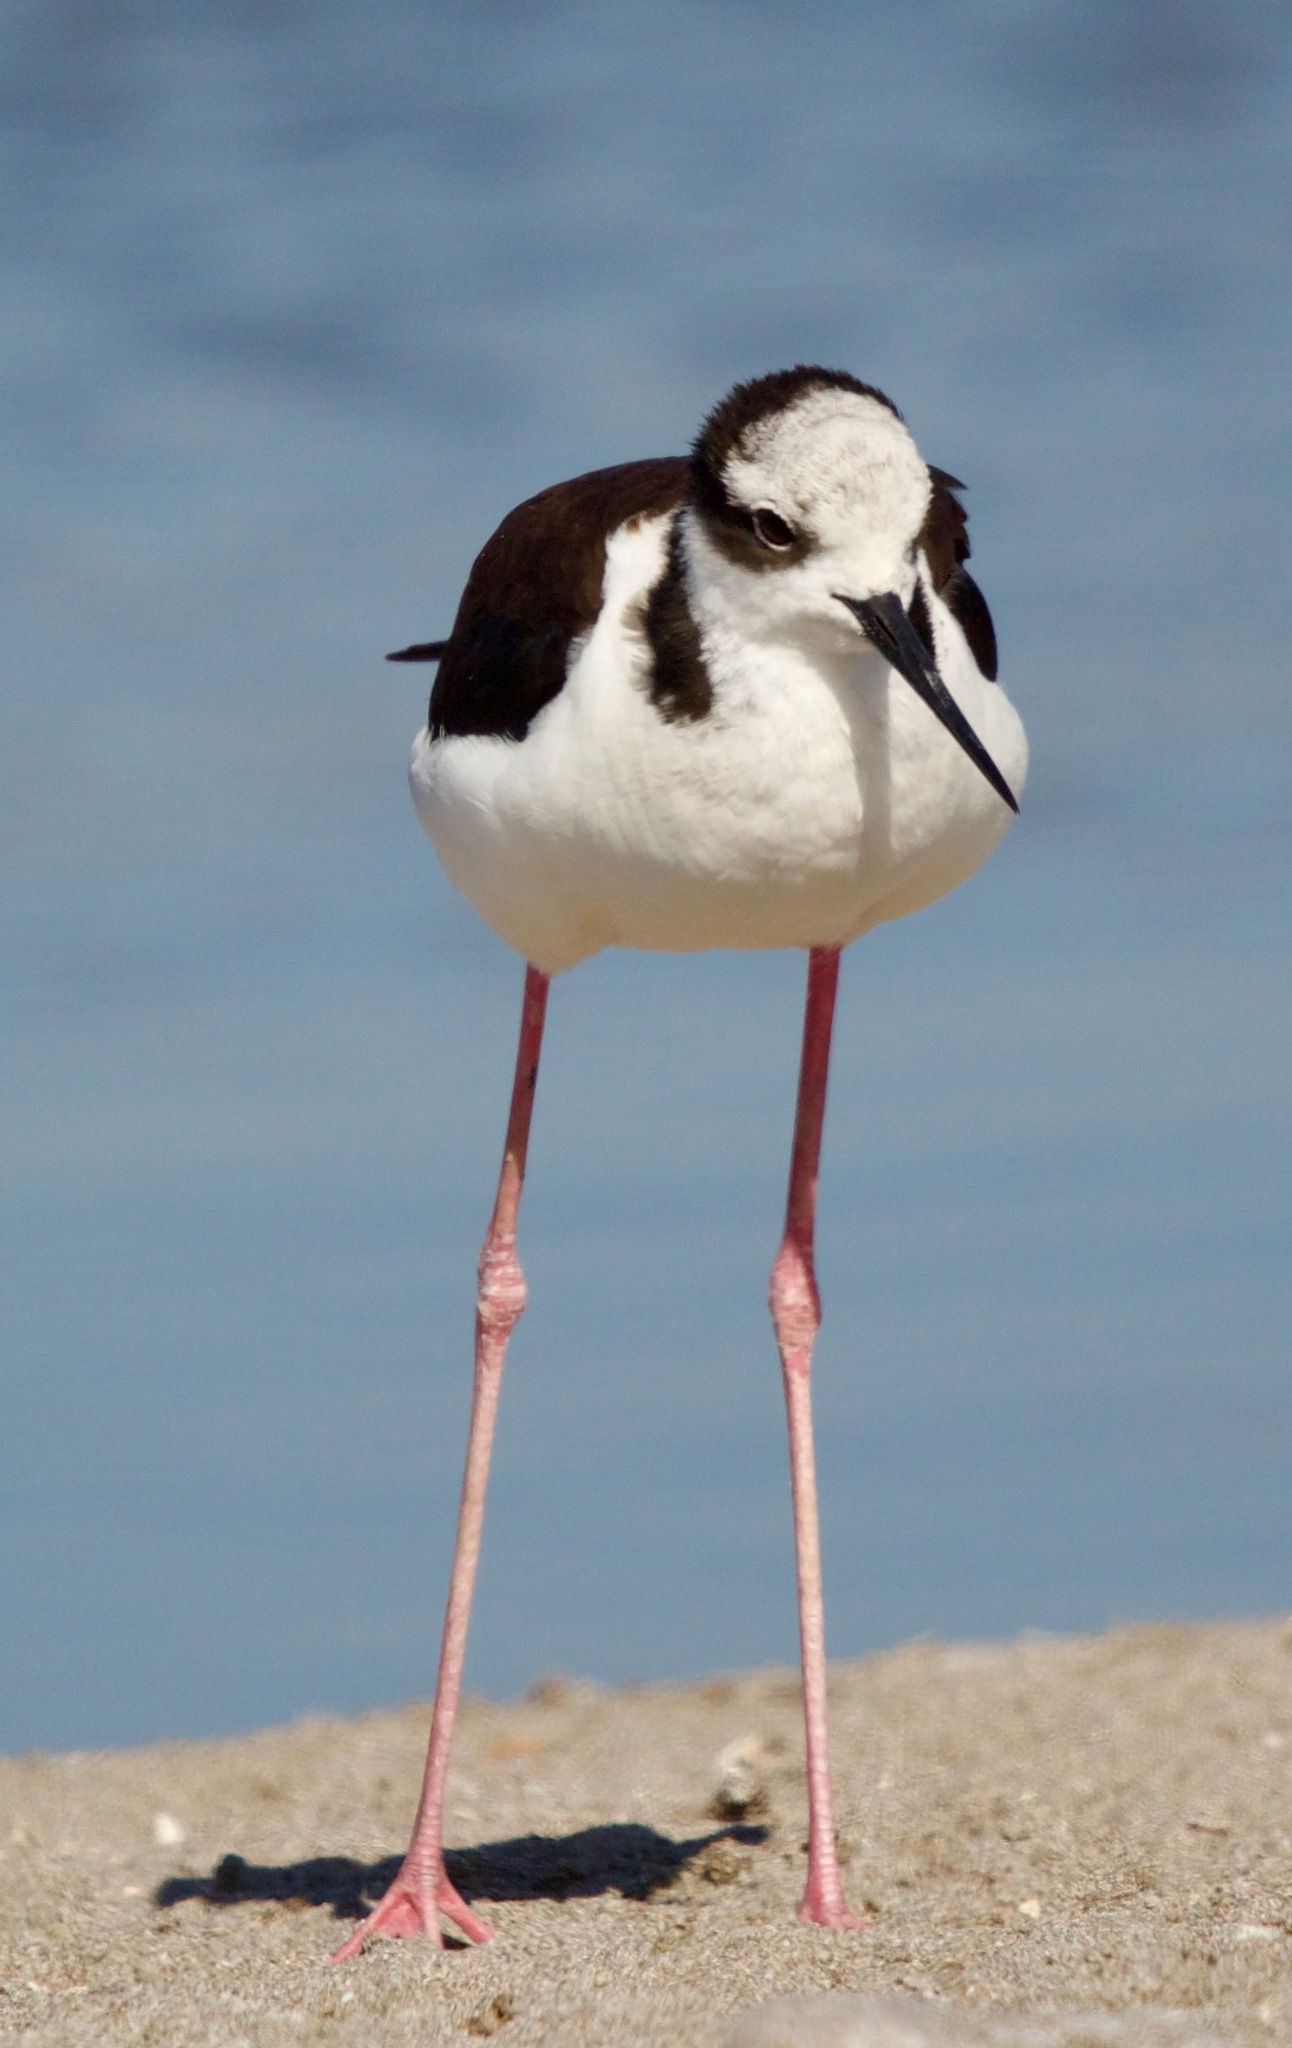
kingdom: Animalia
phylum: Chordata
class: Aves
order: Charadriiformes
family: Recurvirostridae
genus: Himantopus
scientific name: Himantopus mexicanus
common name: Black-necked stilt
